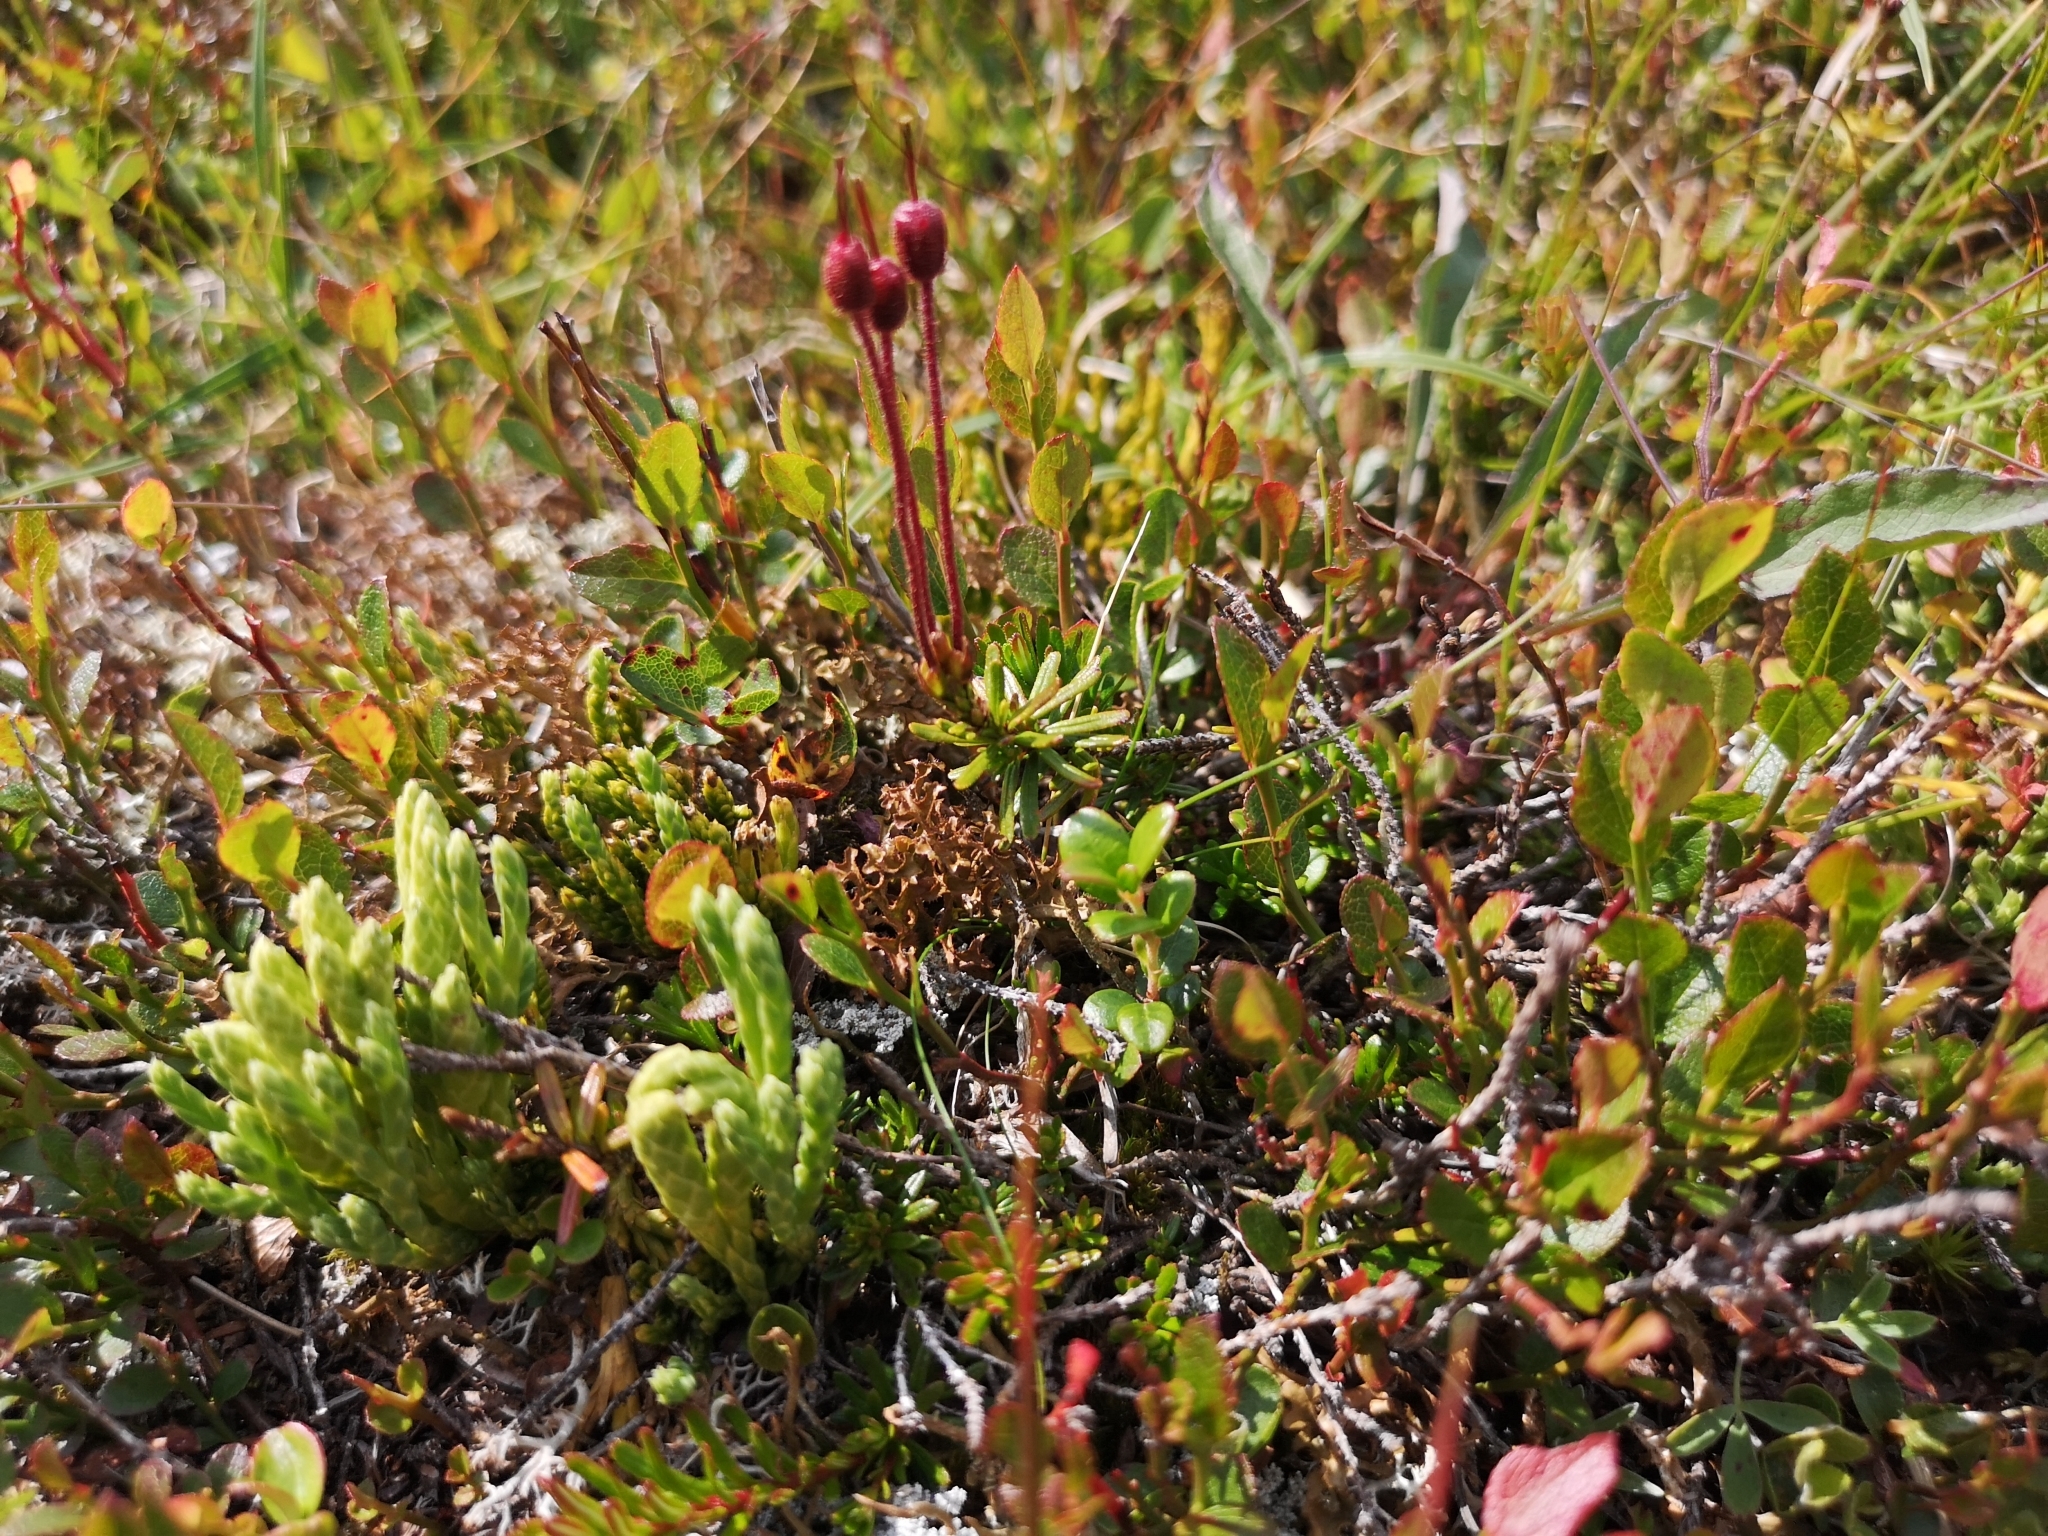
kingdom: Plantae
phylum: Tracheophyta
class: Magnoliopsida
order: Ericales
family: Ericaceae
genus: Phyllodoce
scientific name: Phyllodoce caerulea
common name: Blue heath
